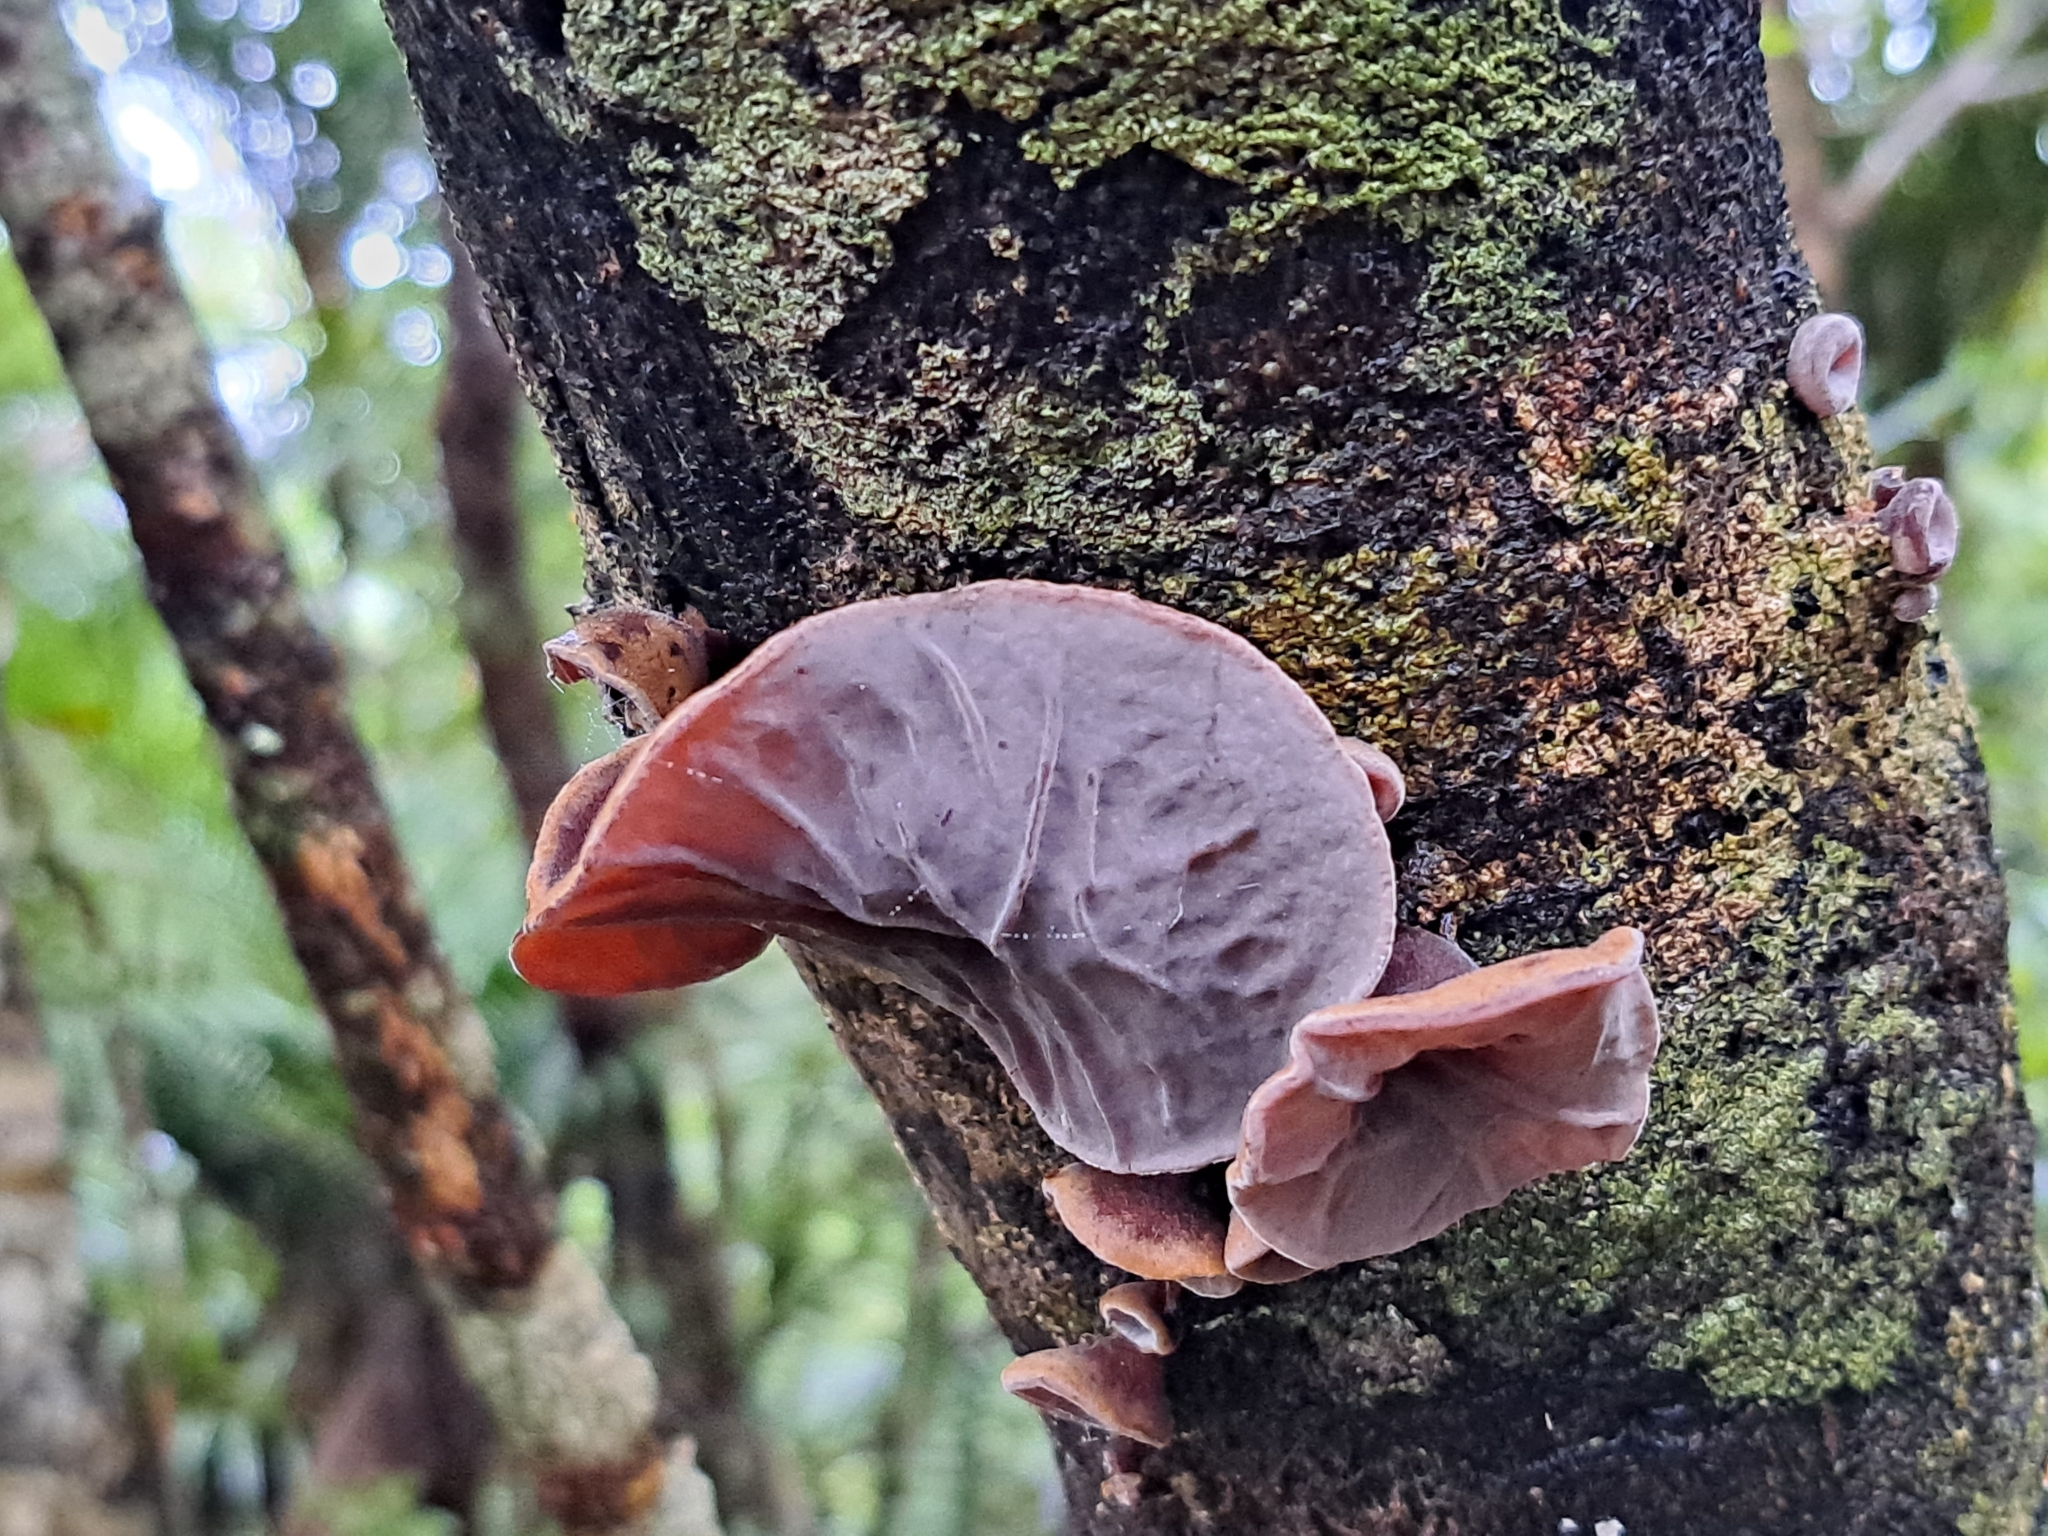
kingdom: Fungi
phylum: Basidiomycota
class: Agaricomycetes
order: Auriculariales
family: Auriculariaceae
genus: Auricularia
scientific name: Auricularia cornea
